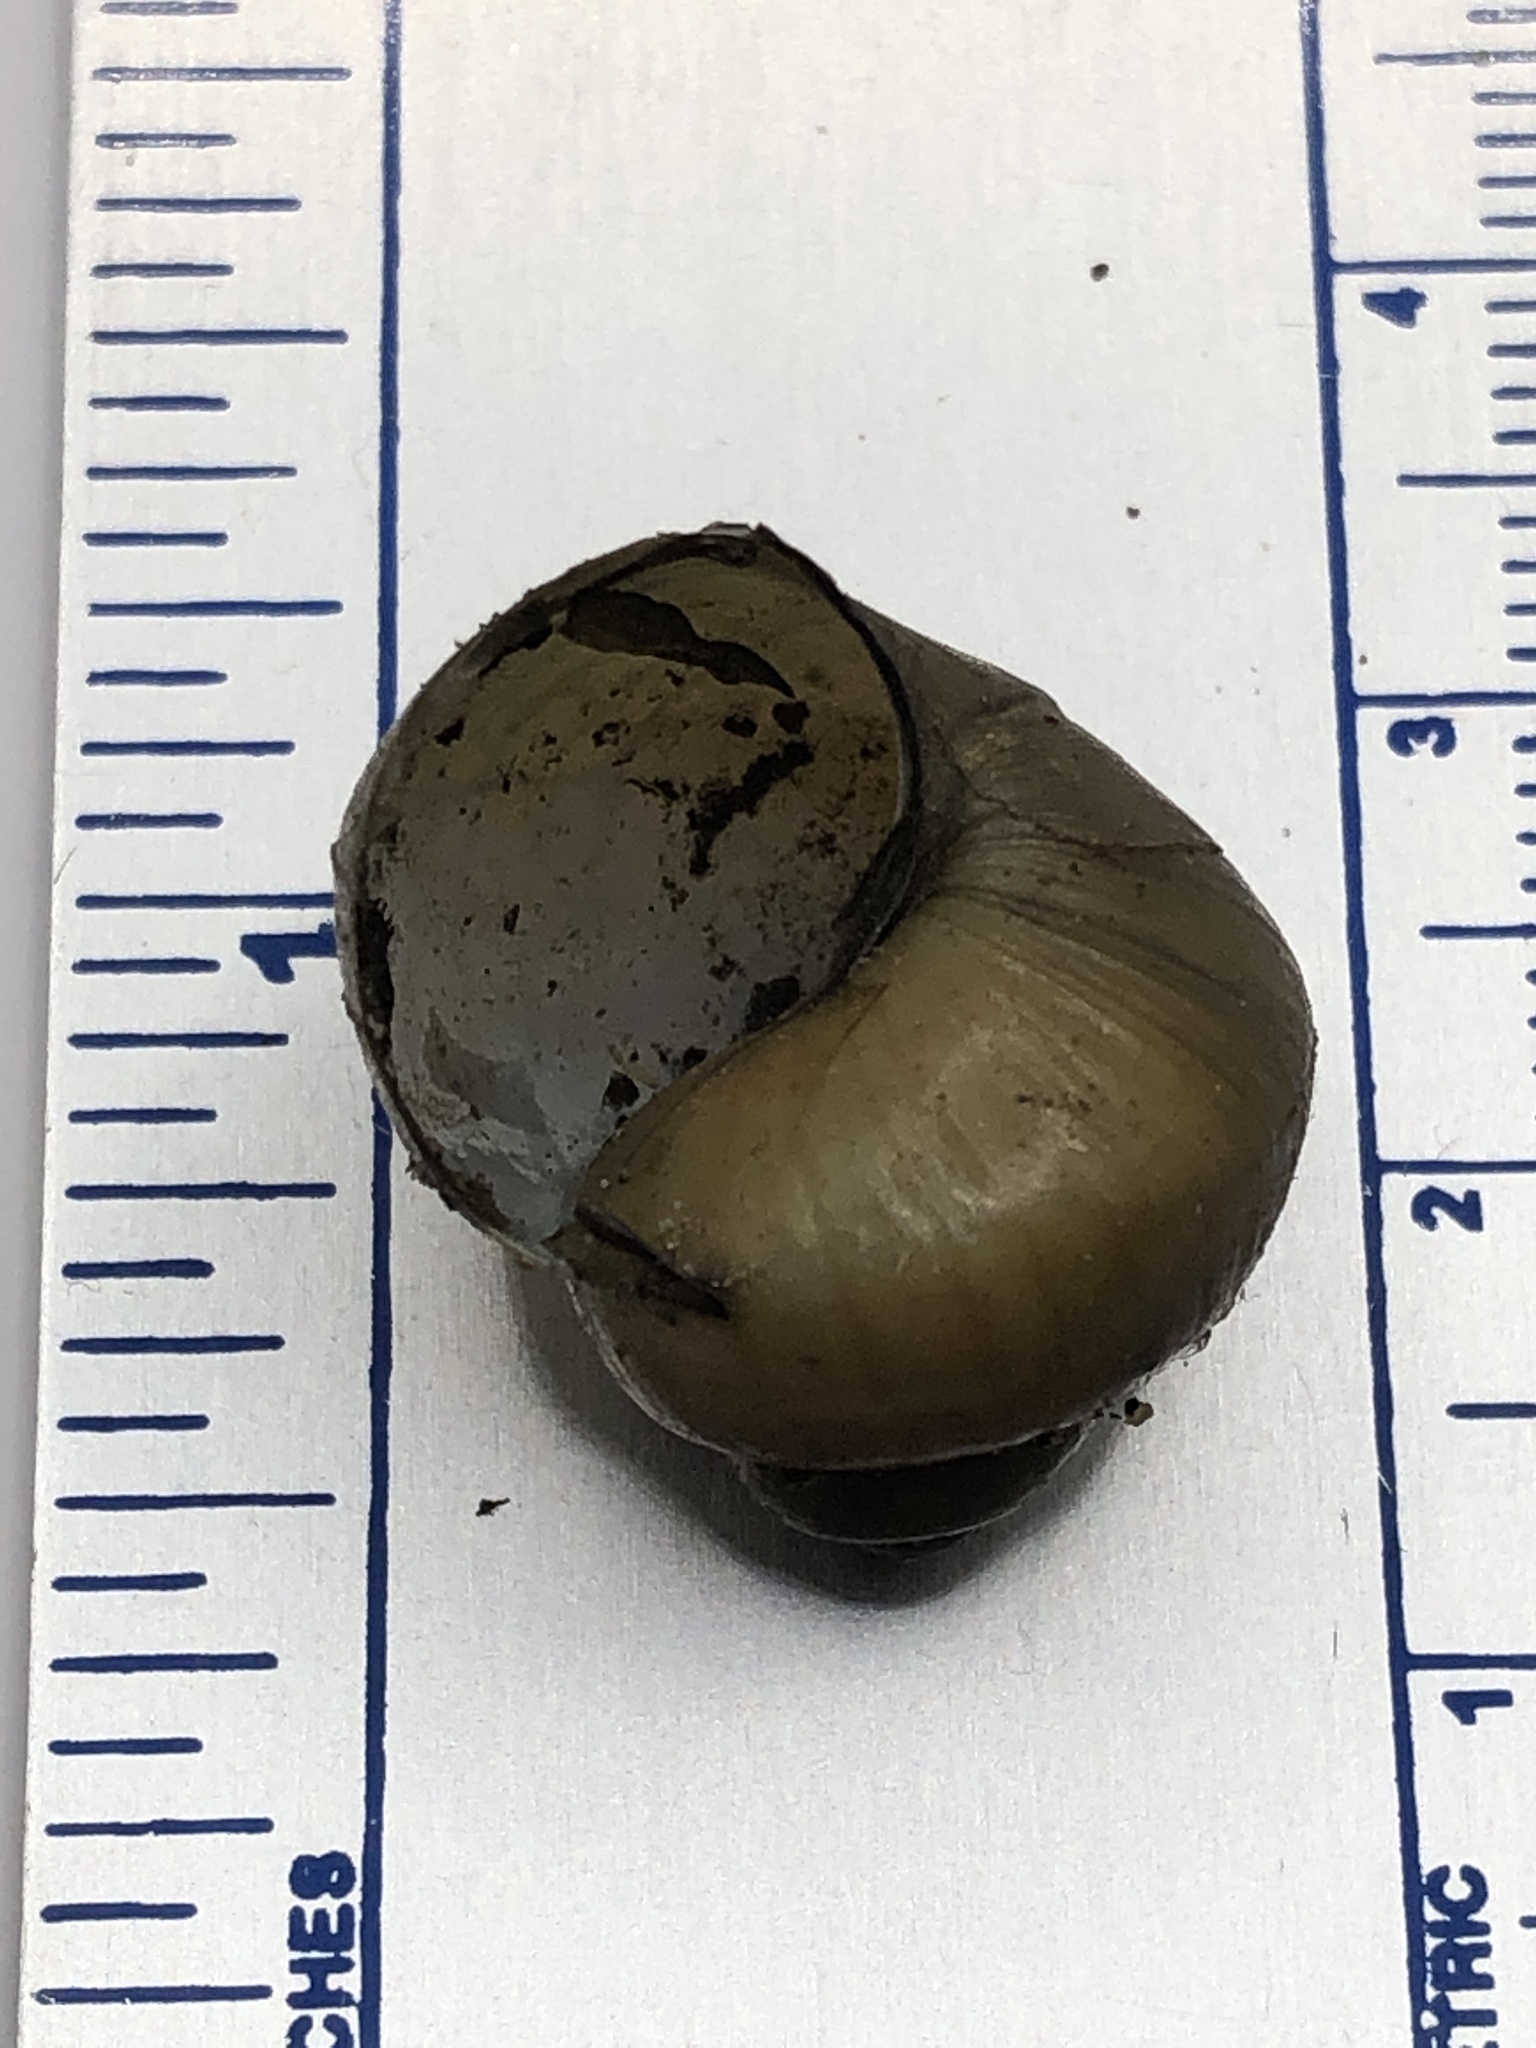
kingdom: Animalia
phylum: Mollusca
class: Gastropoda
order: Architaenioglossa
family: Viviparidae
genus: Cipangopaludina
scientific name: Cipangopaludina chinensis
